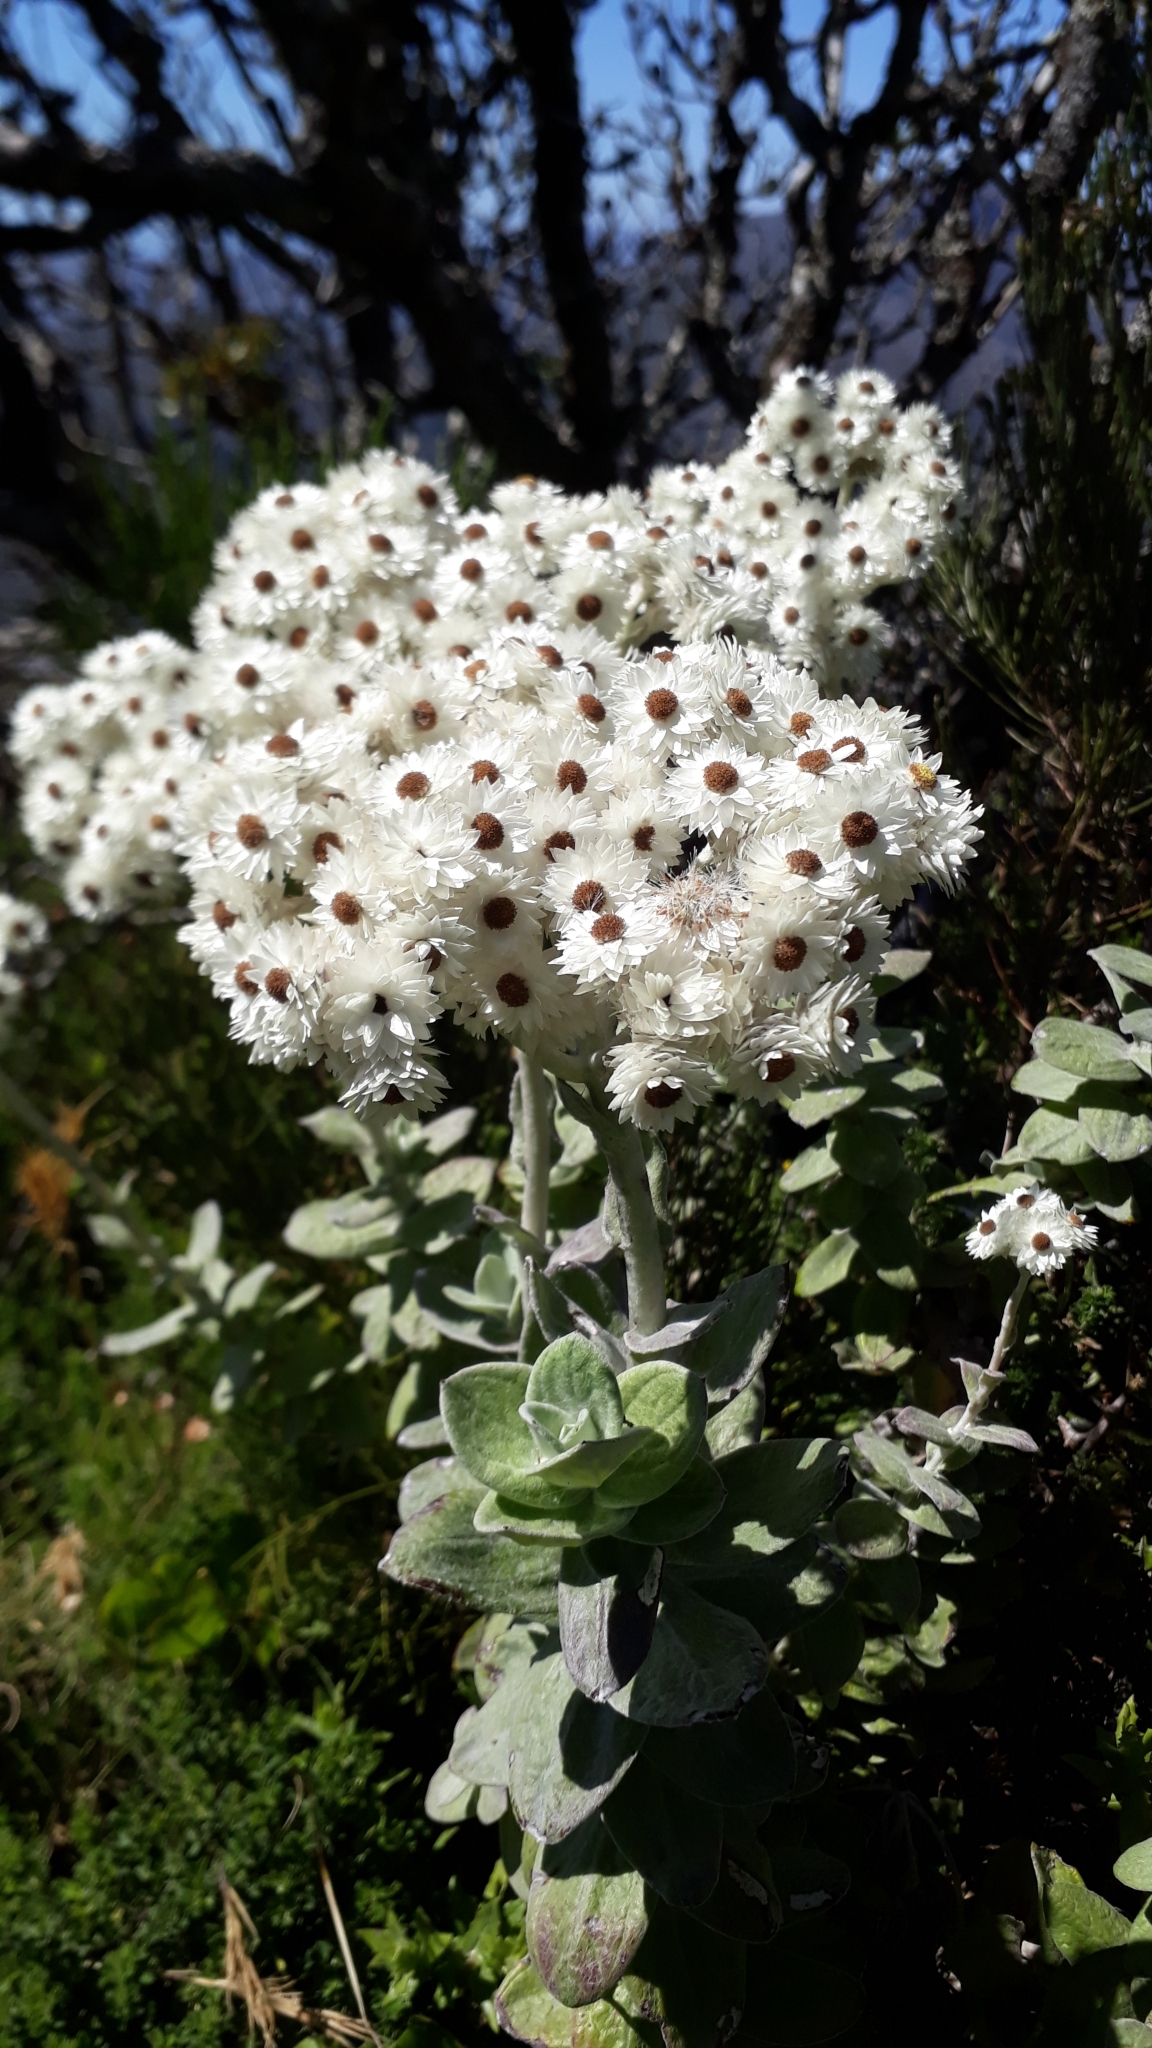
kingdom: Plantae
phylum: Tracheophyta
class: Magnoliopsida
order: Asterales
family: Asteraceae
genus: Helichrysum
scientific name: Helichrysum fruticans
